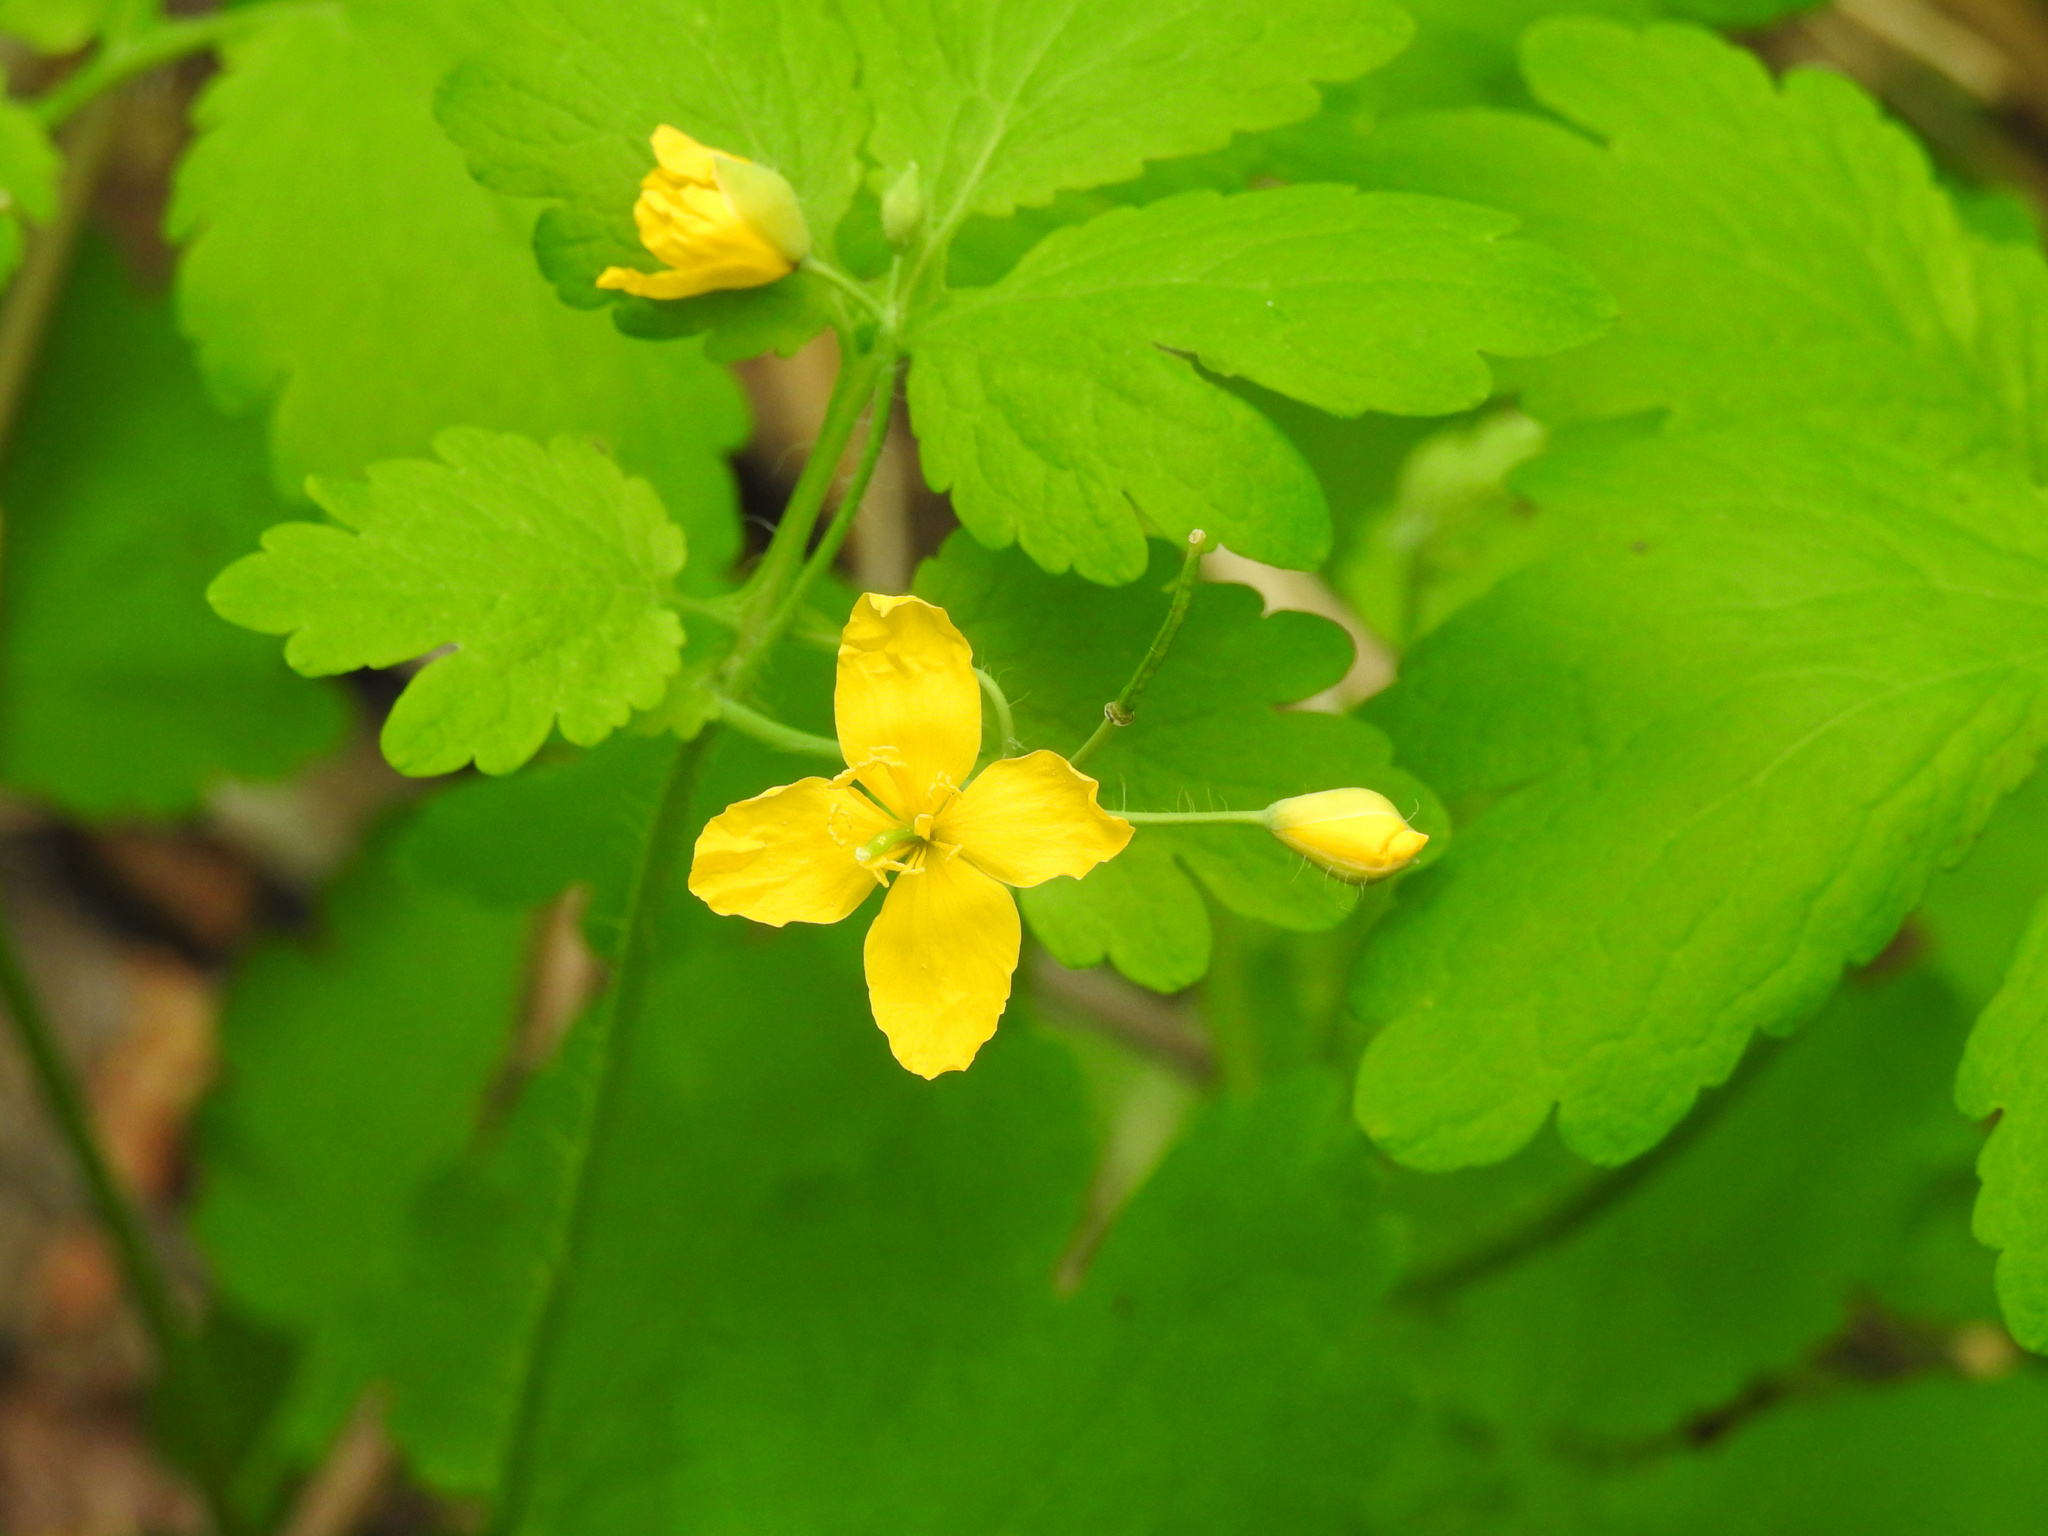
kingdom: Plantae
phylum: Tracheophyta
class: Magnoliopsida
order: Ranunculales
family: Papaveraceae
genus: Chelidonium
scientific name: Chelidonium majus
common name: Greater celandine
